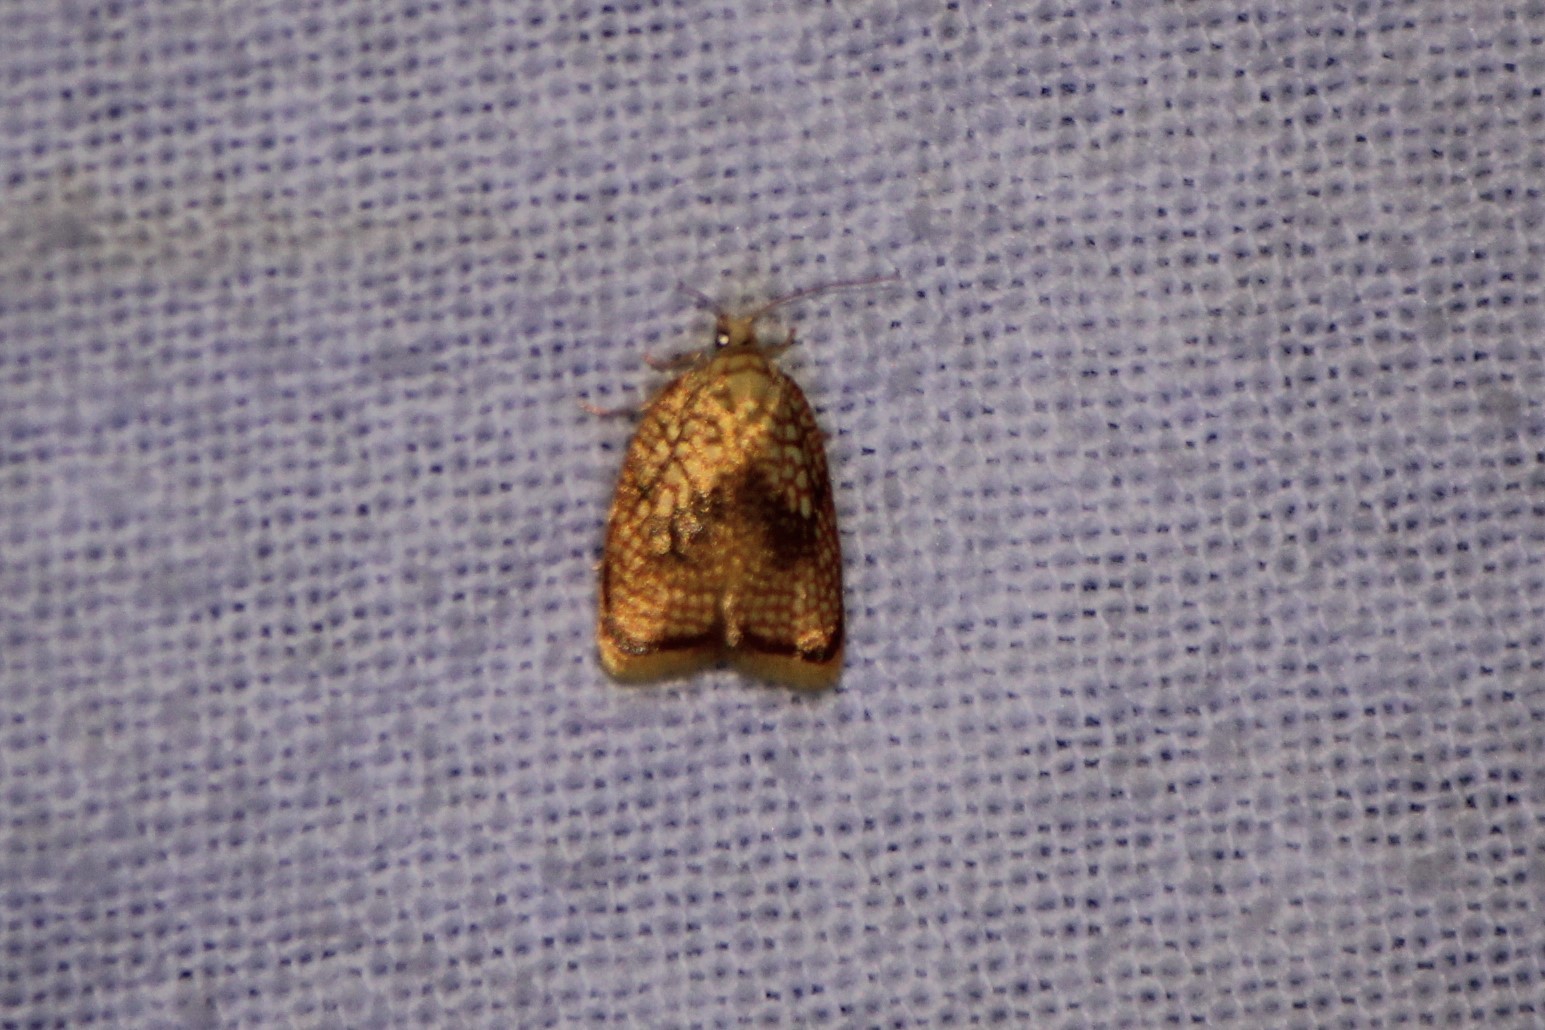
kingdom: Animalia
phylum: Arthropoda
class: Insecta
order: Lepidoptera
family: Tortricidae
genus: Acleris
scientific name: Acleris forsskaleana
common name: Maple button
